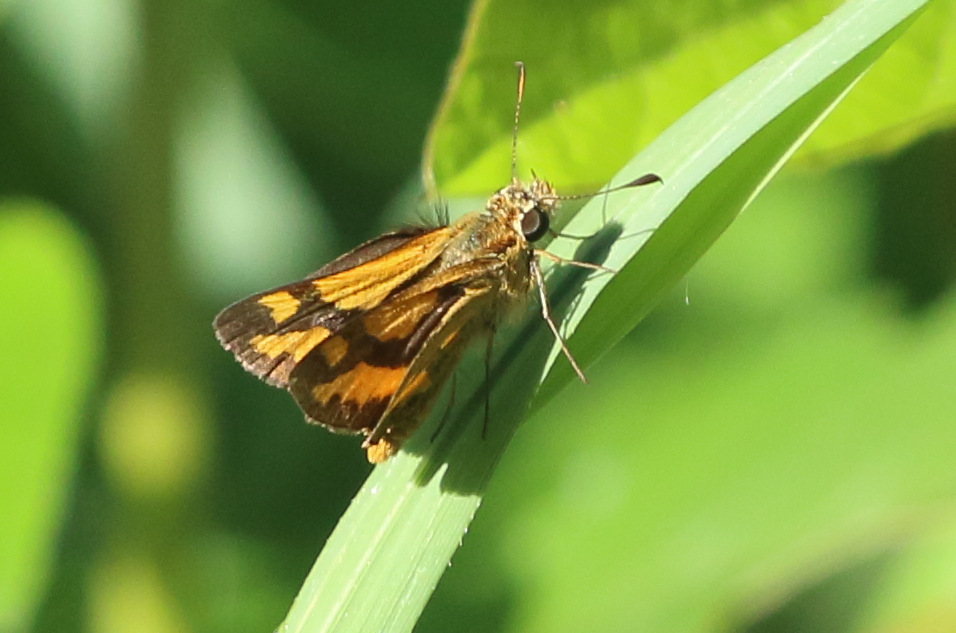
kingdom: Animalia
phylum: Arthropoda
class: Insecta
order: Lepidoptera
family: Hesperiidae
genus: Ocybadistes
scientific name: Ocybadistes flavovittata
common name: Narrow-brand grass-dart
